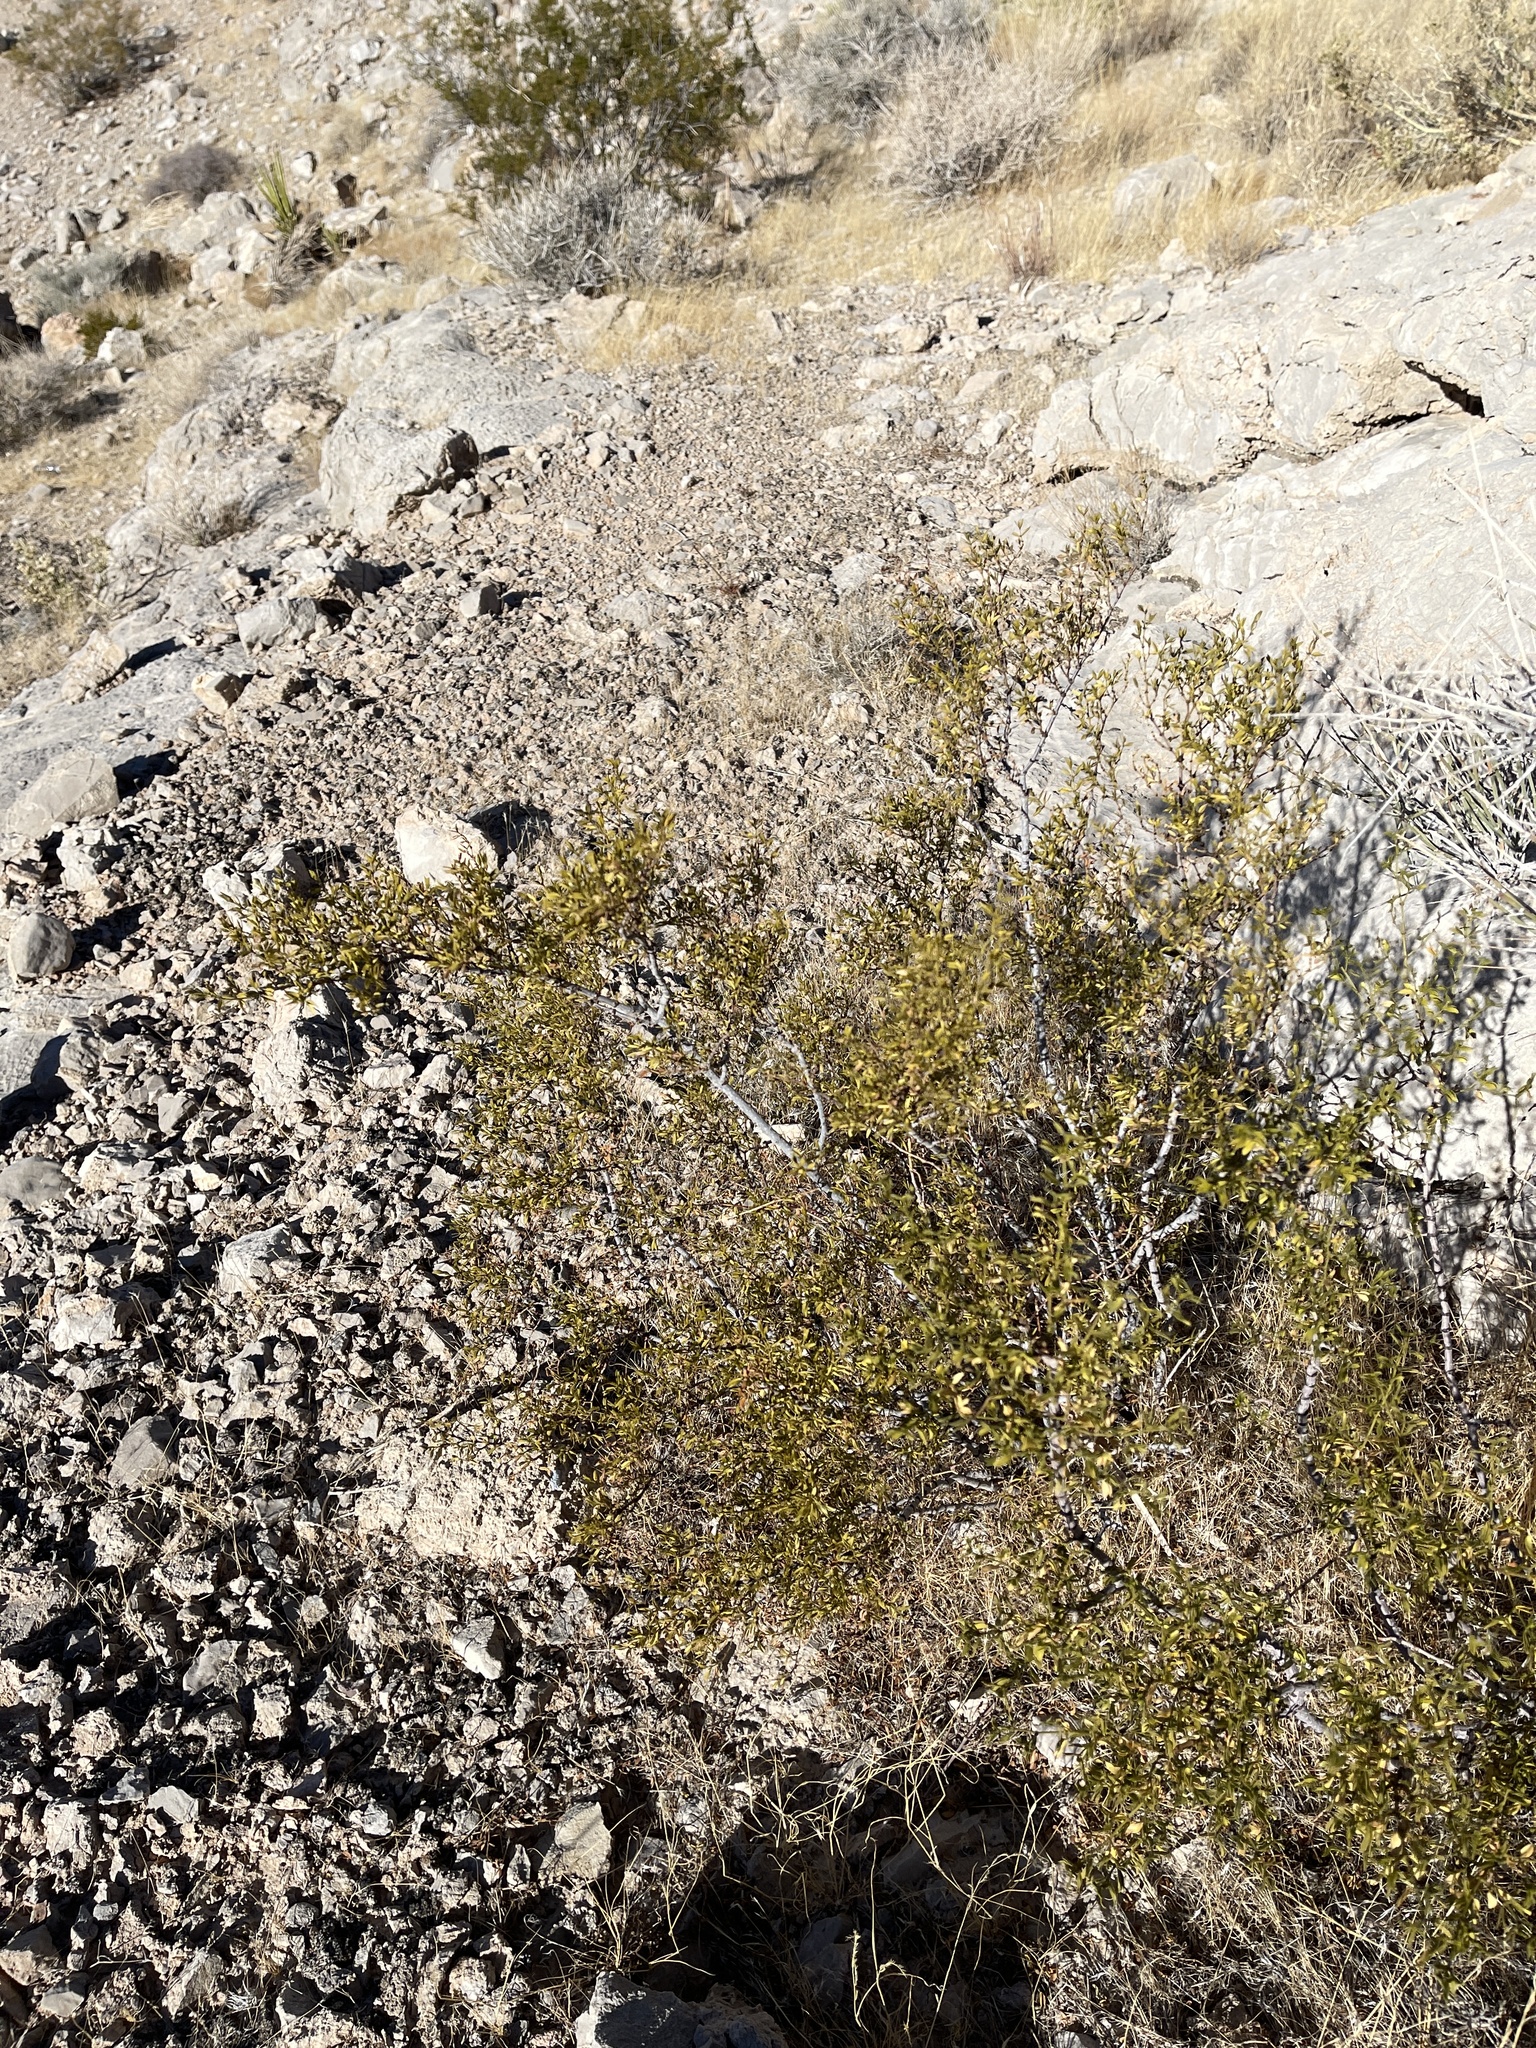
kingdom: Plantae
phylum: Tracheophyta
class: Magnoliopsida
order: Zygophyllales
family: Zygophyllaceae
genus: Larrea
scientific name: Larrea tridentata
